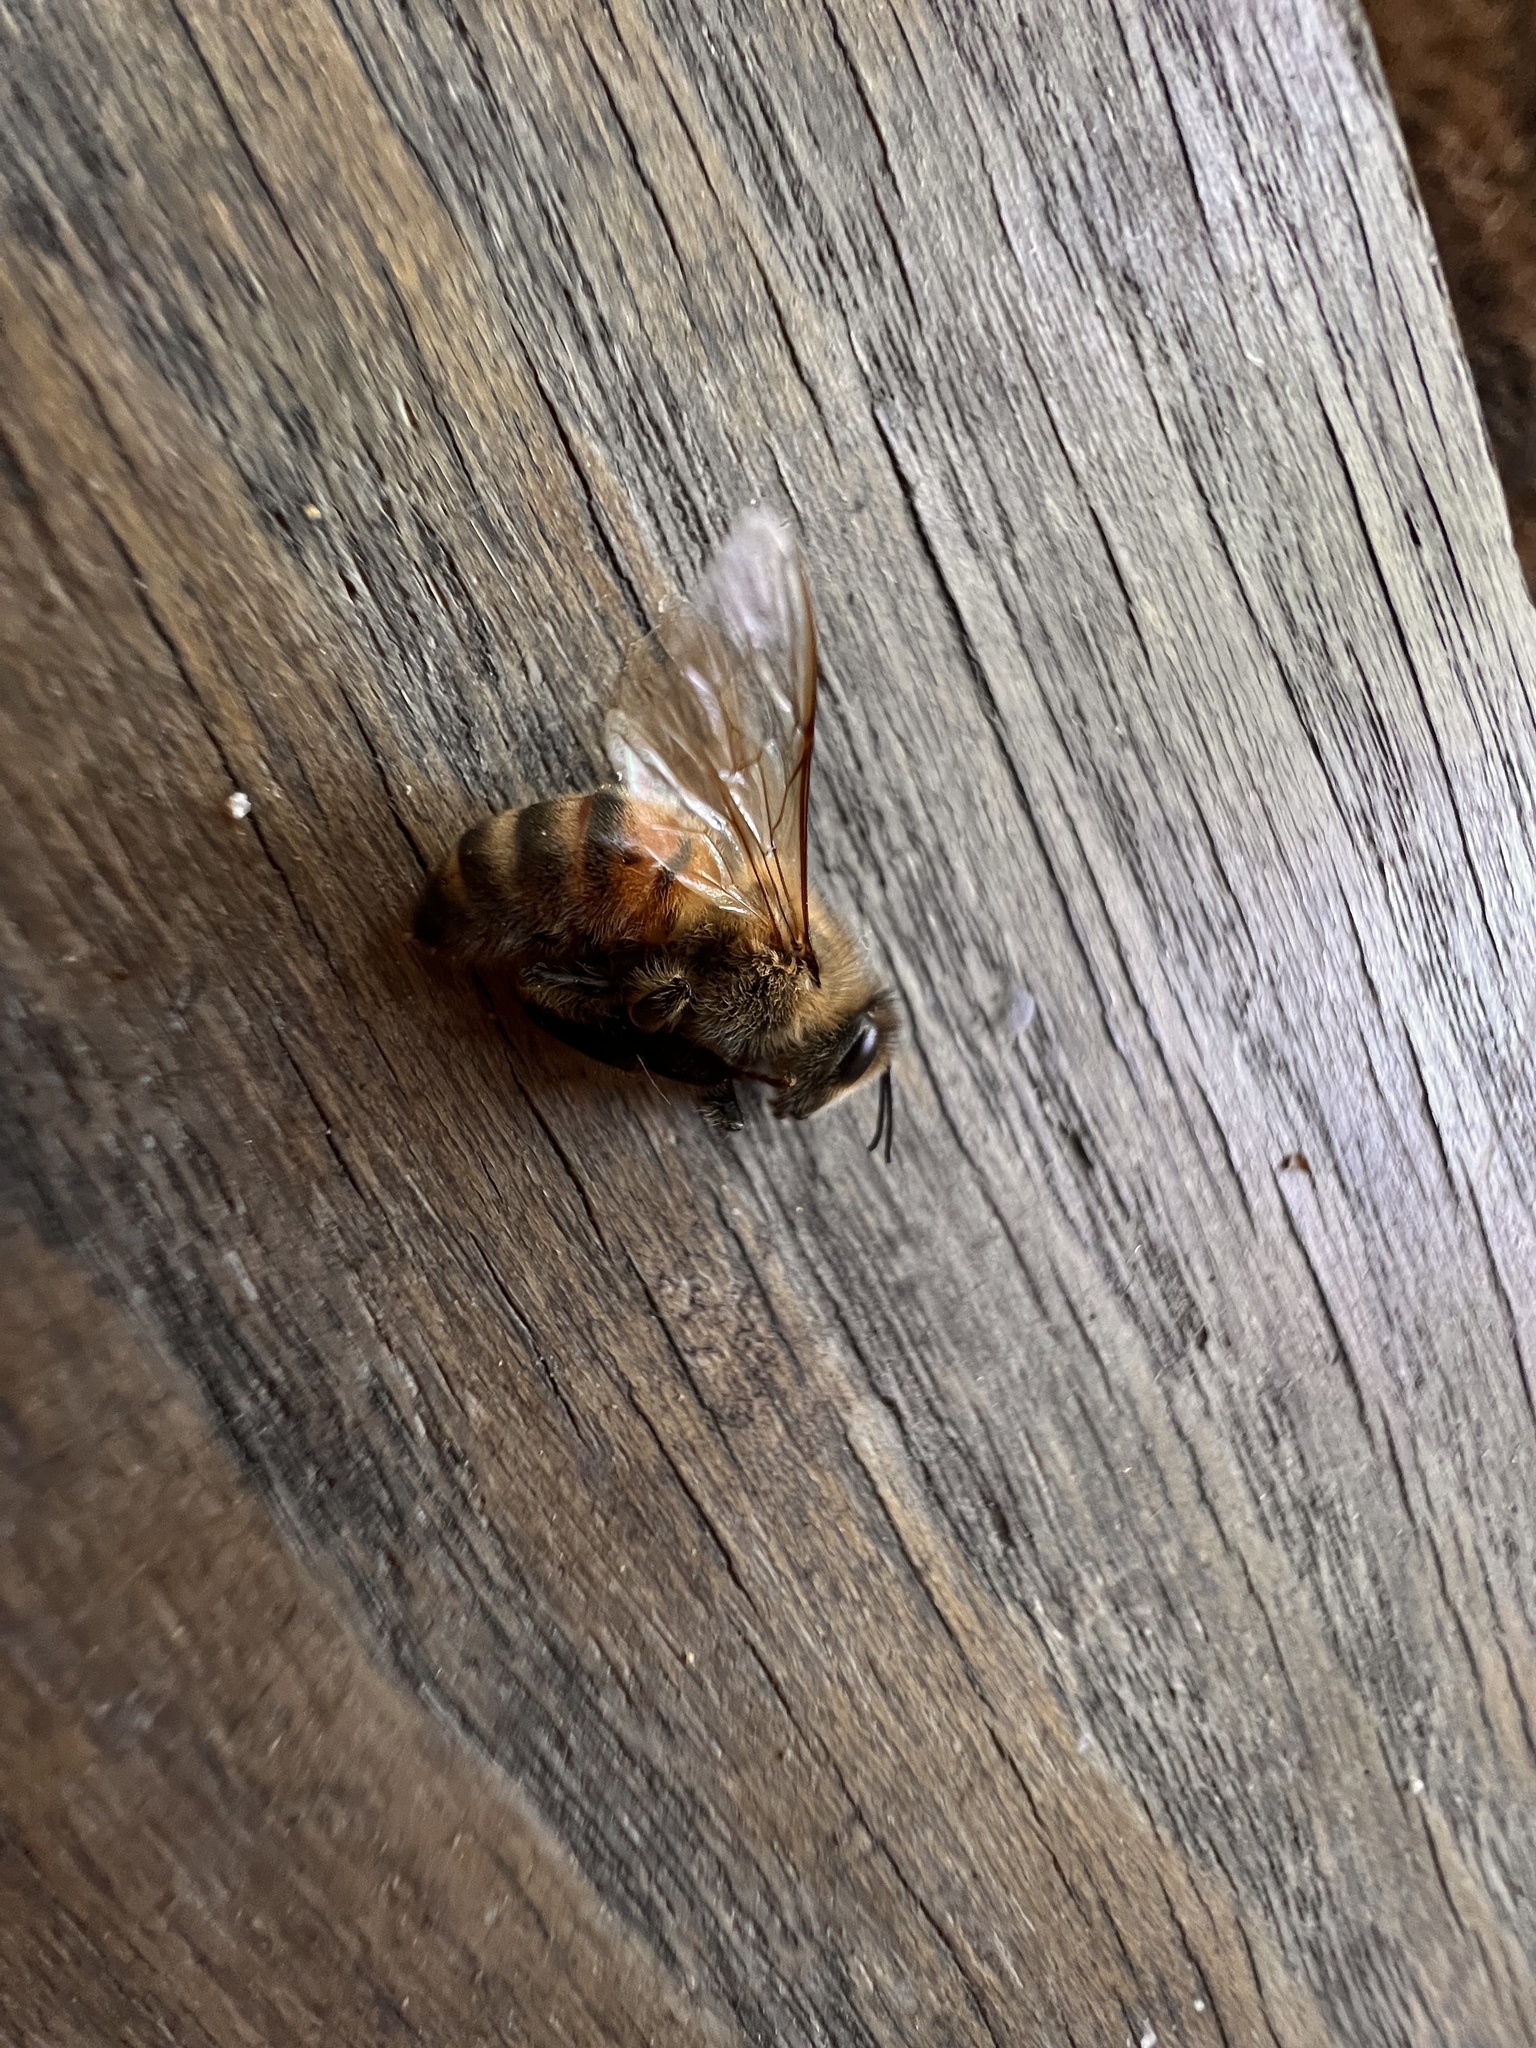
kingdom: Animalia
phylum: Arthropoda
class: Insecta
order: Hymenoptera
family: Apidae
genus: Apis
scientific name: Apis mellifera
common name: Honey bee
